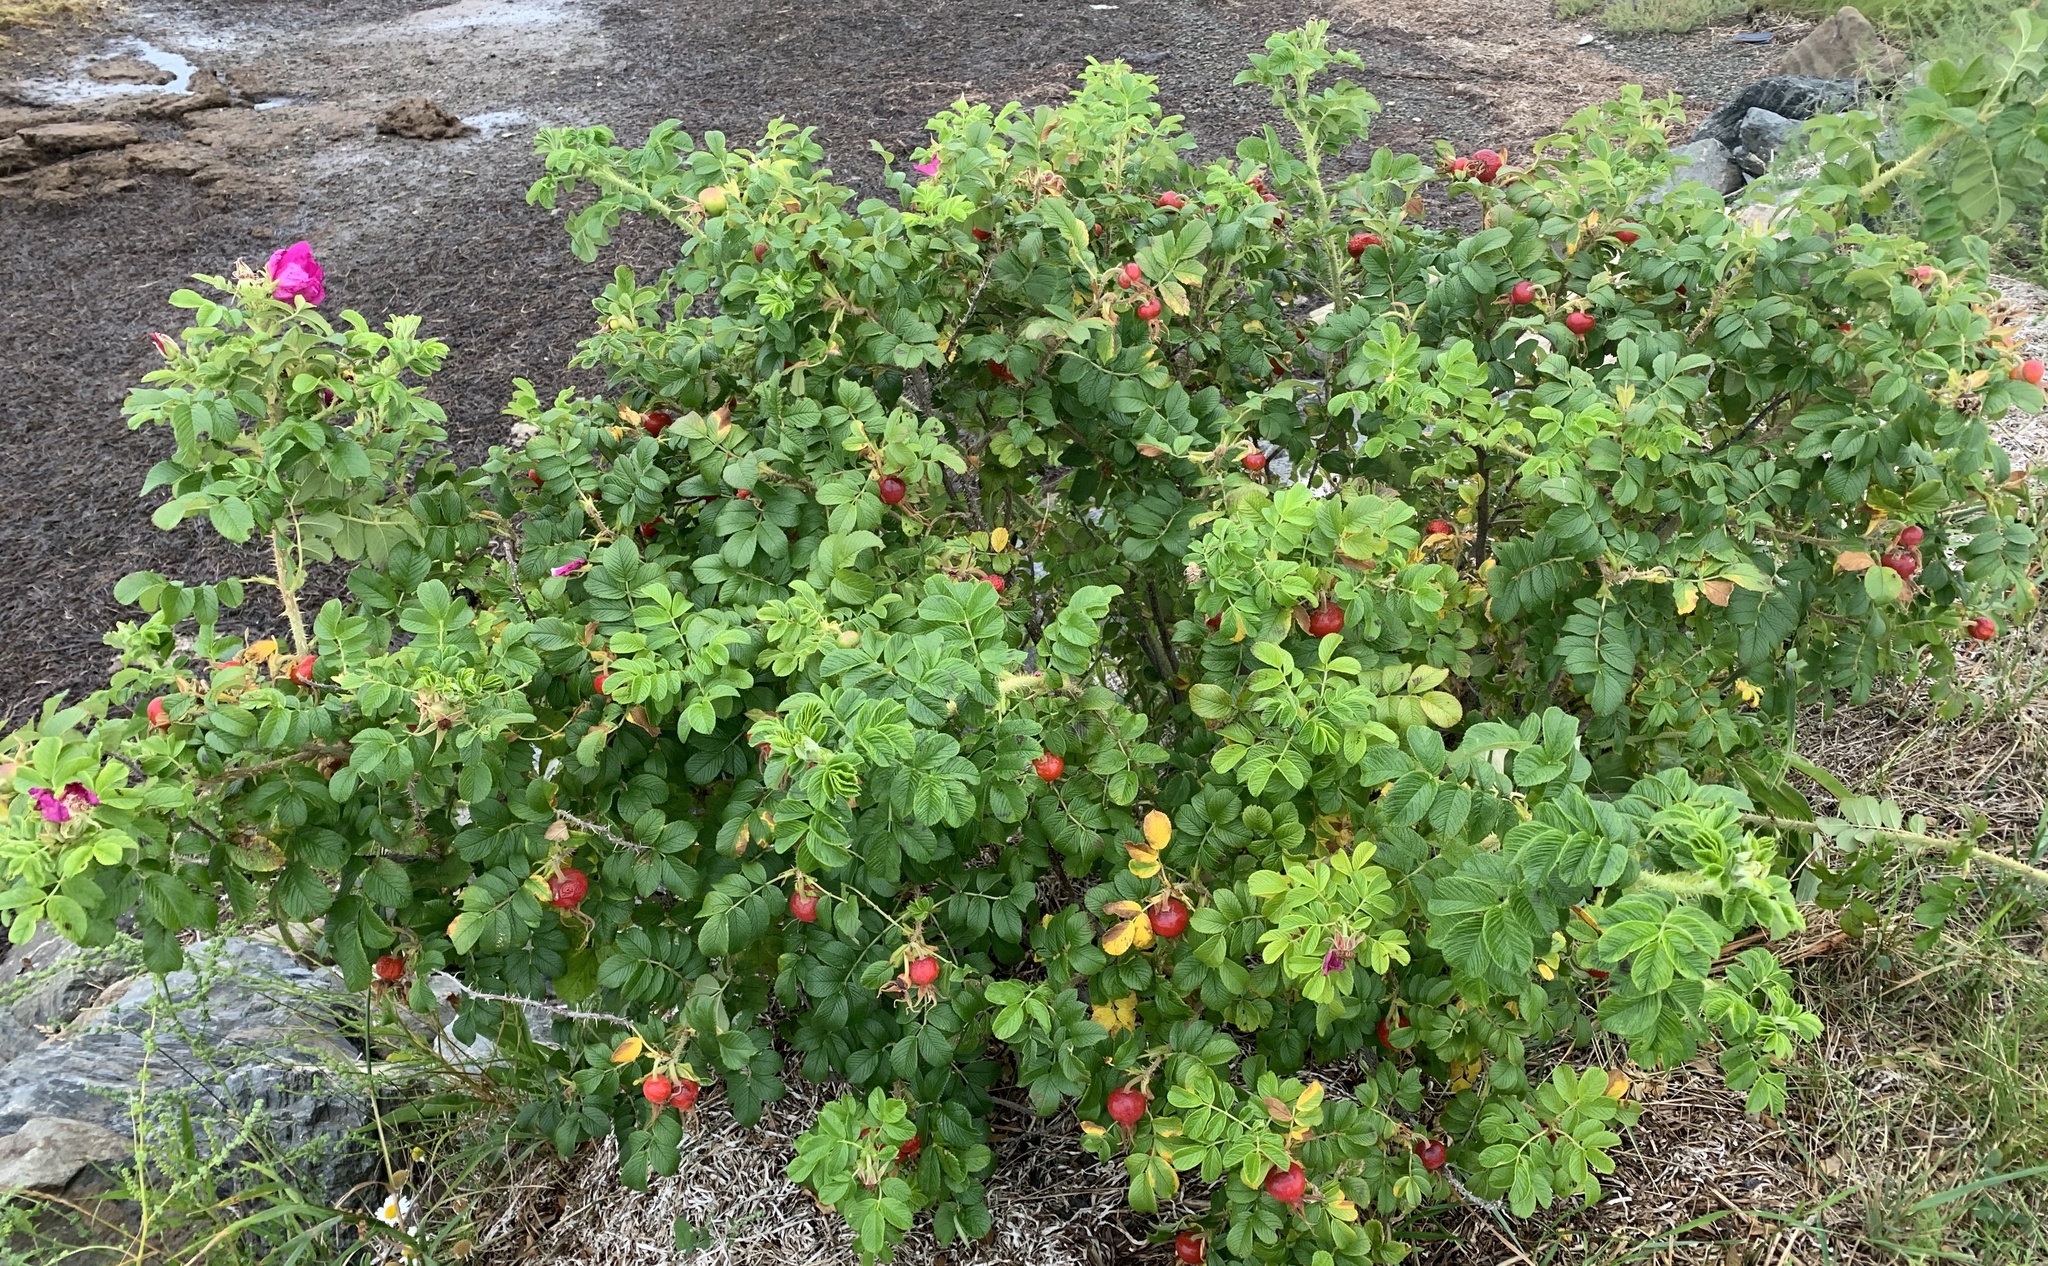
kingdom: Plantae
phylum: Tracheophyta
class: Magnoliopsida
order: Rosales
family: Rosaceae
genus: Rosa
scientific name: Rosa rugosa
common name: Japanese rose
